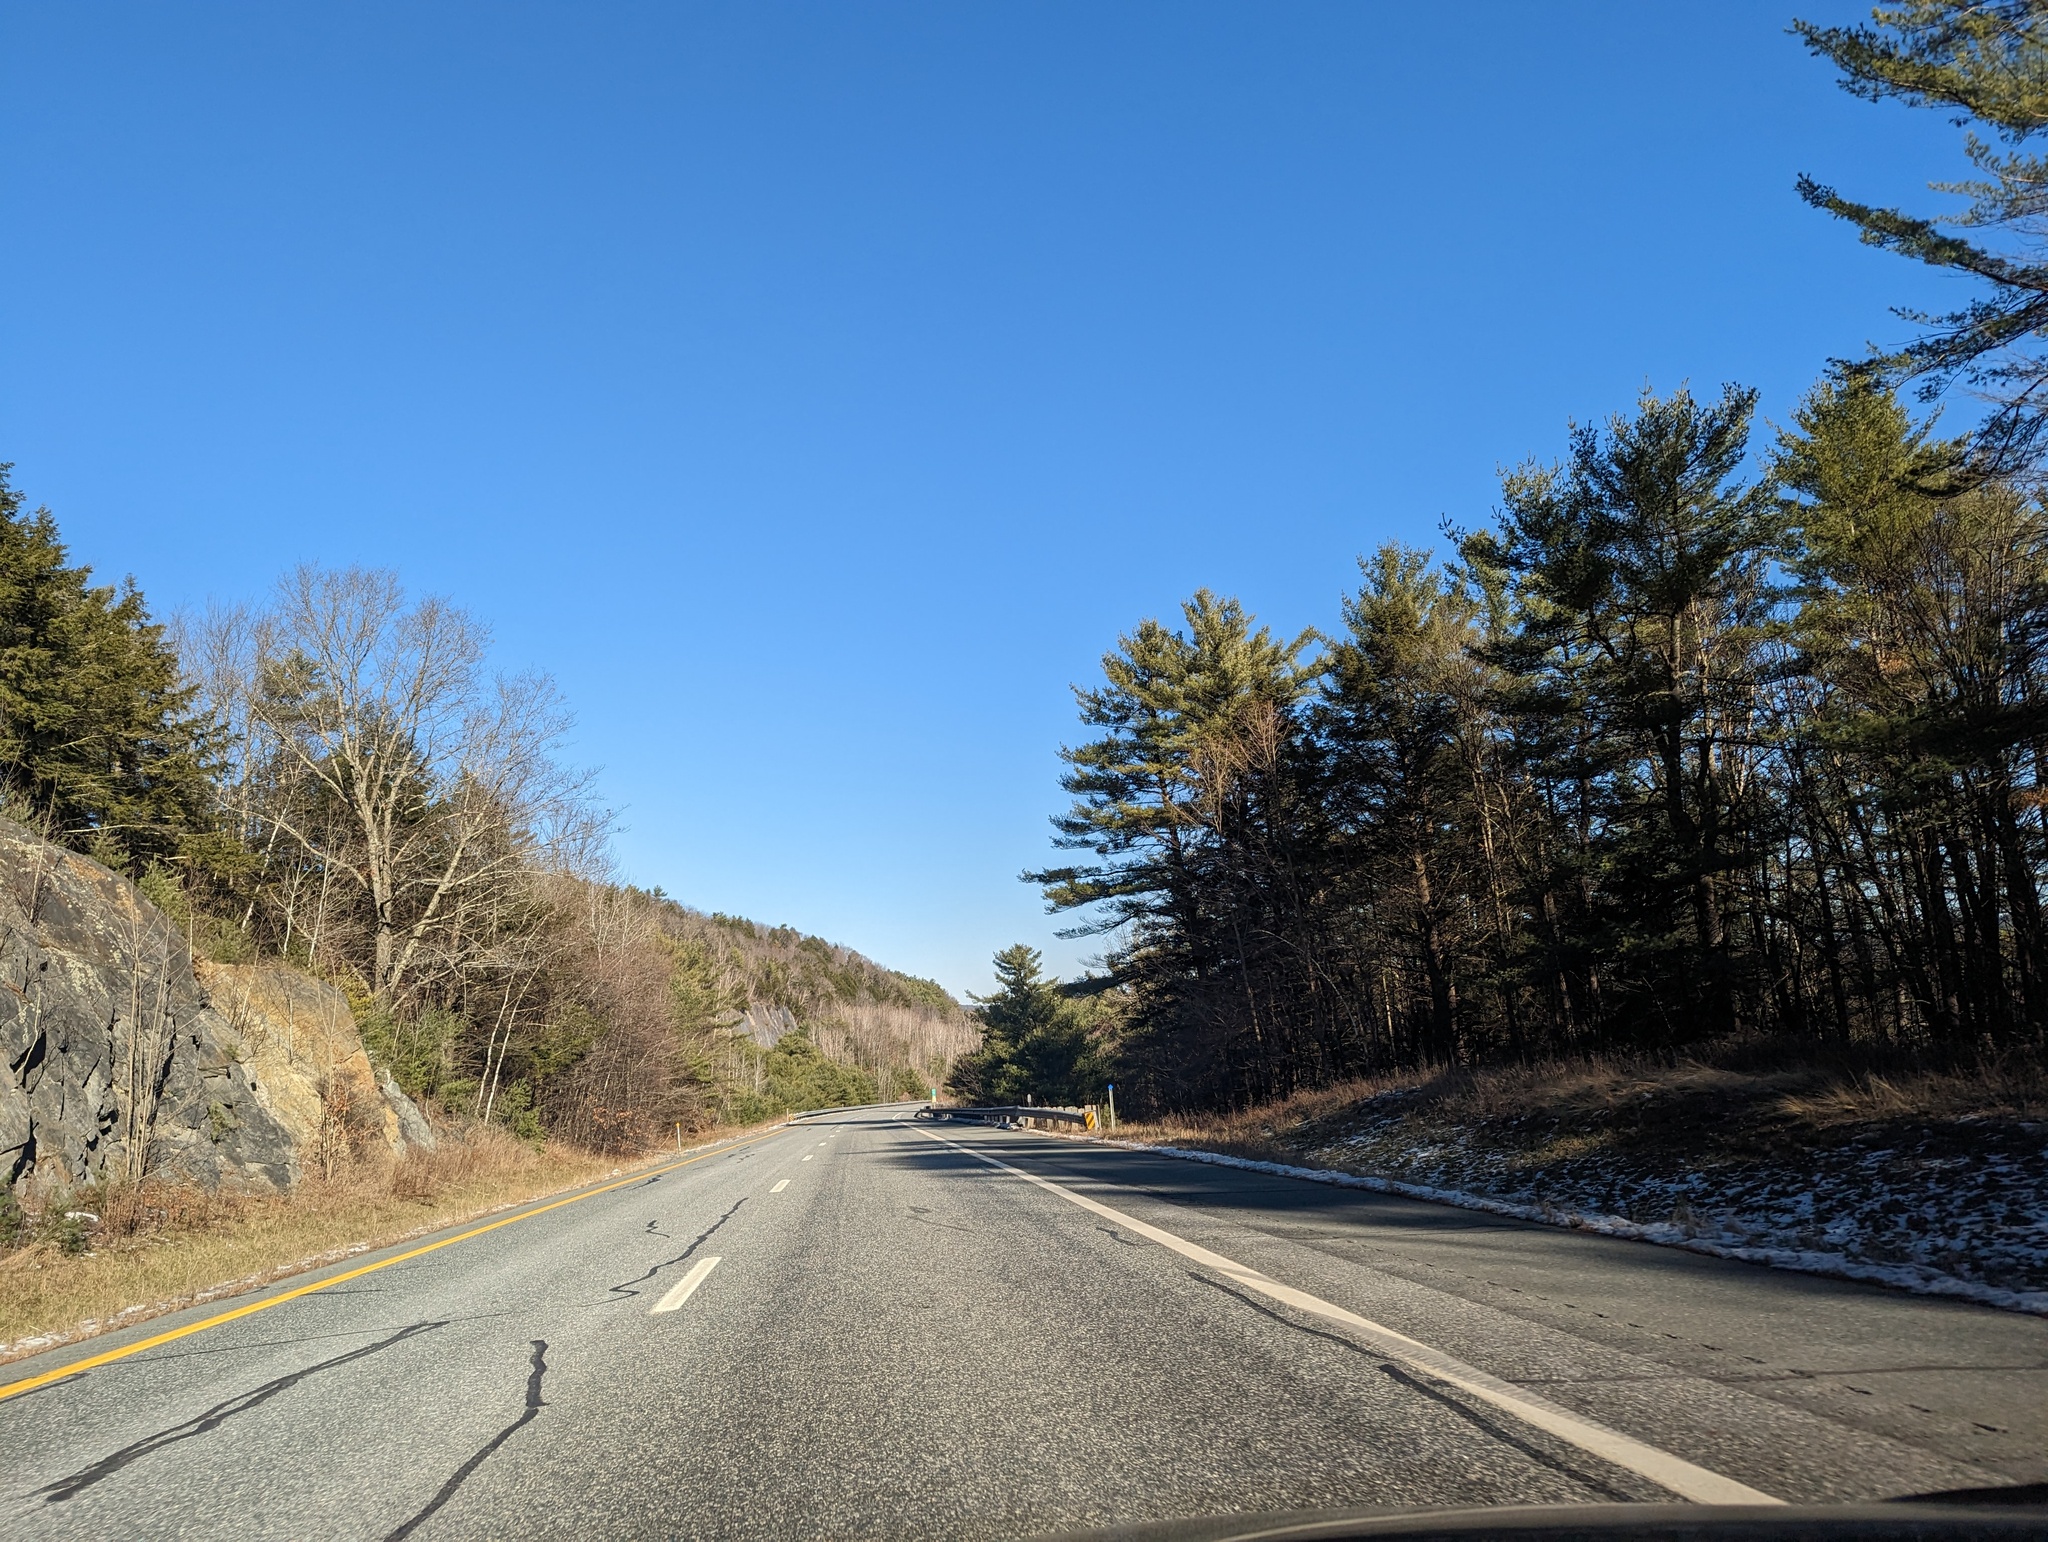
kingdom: Plantae
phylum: Tracheophyta
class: Pinopsida
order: Pinales
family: Pinaceae
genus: Pinus
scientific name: Pinus strobus
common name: Weymouth pine
